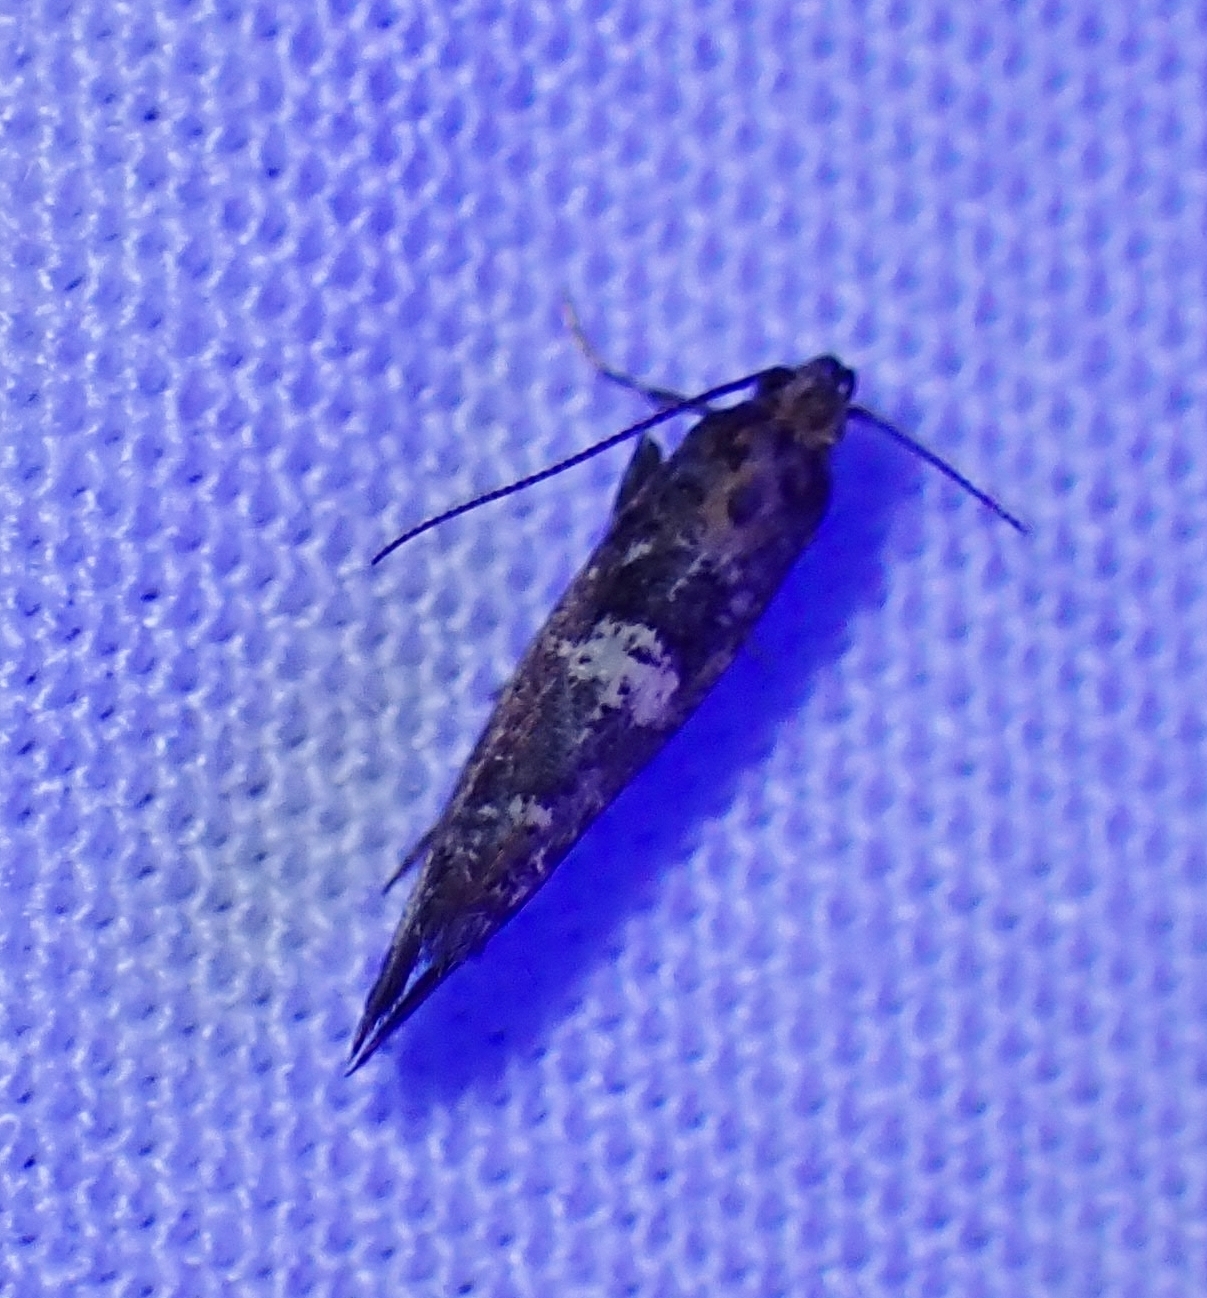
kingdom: Animalia
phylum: Arthropoda
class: Insecta
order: Lepidoptera
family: Glyphipterigidae
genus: Acrolepia
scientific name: Acrolepia assectella
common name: Onion leaf miner
